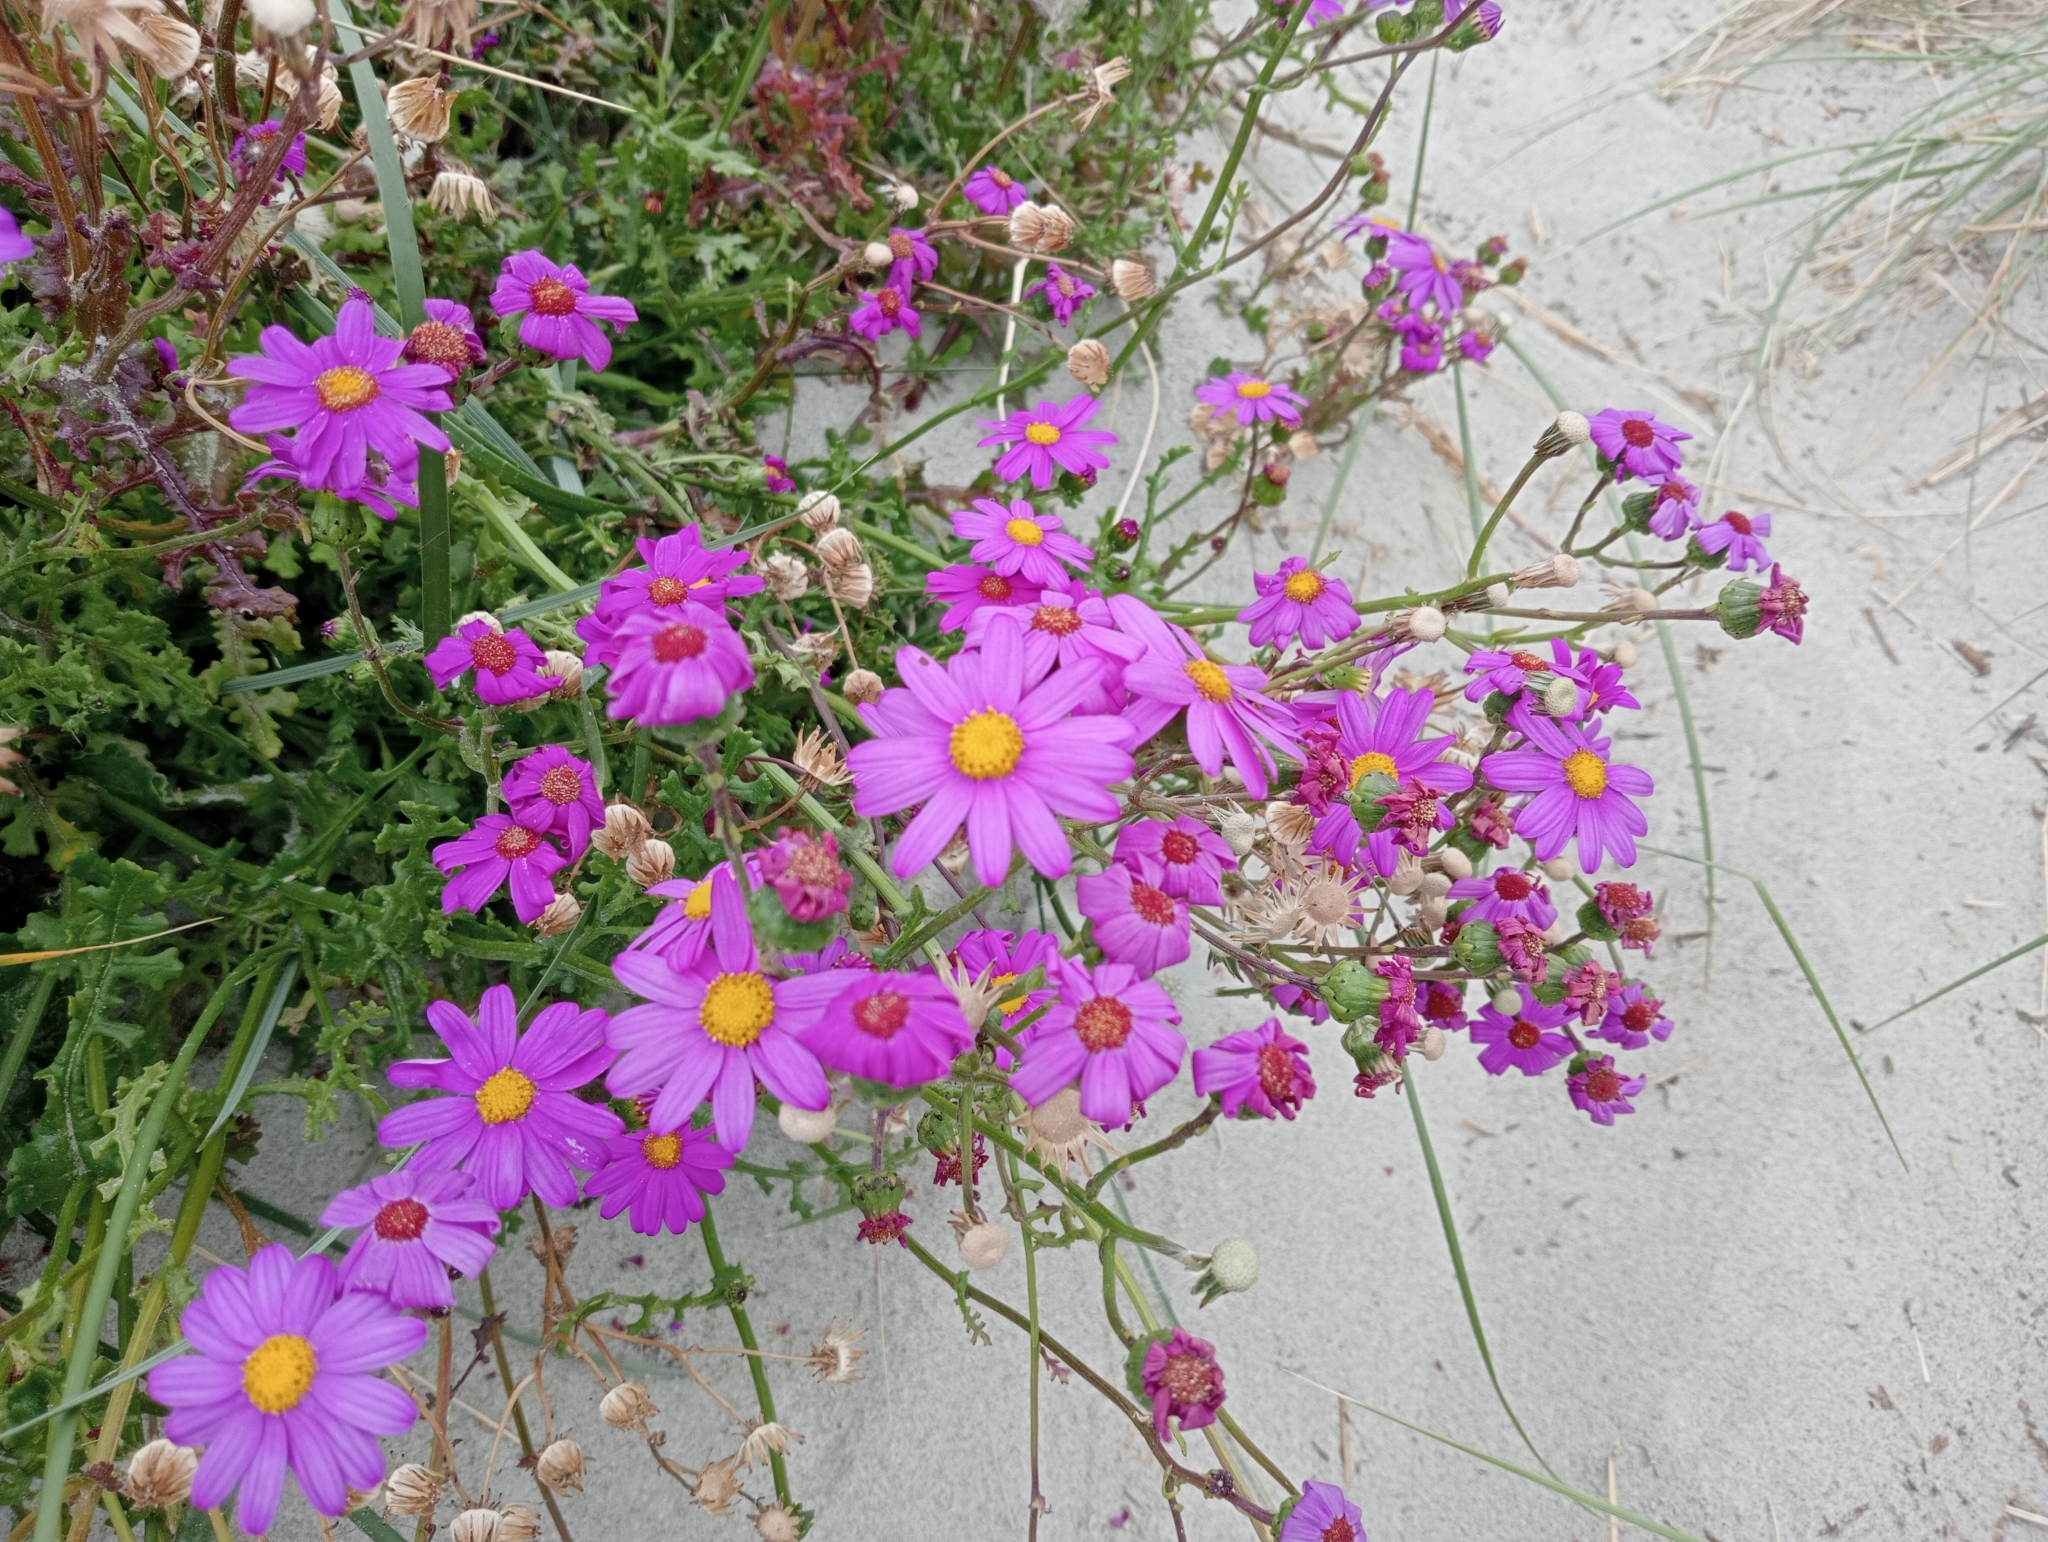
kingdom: Plantae
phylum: Tracheophyta
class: Magnoliopsida
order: Asterales
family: Asteraceae
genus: Senecio
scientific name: Senecio elegans
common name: Purple groundsel
